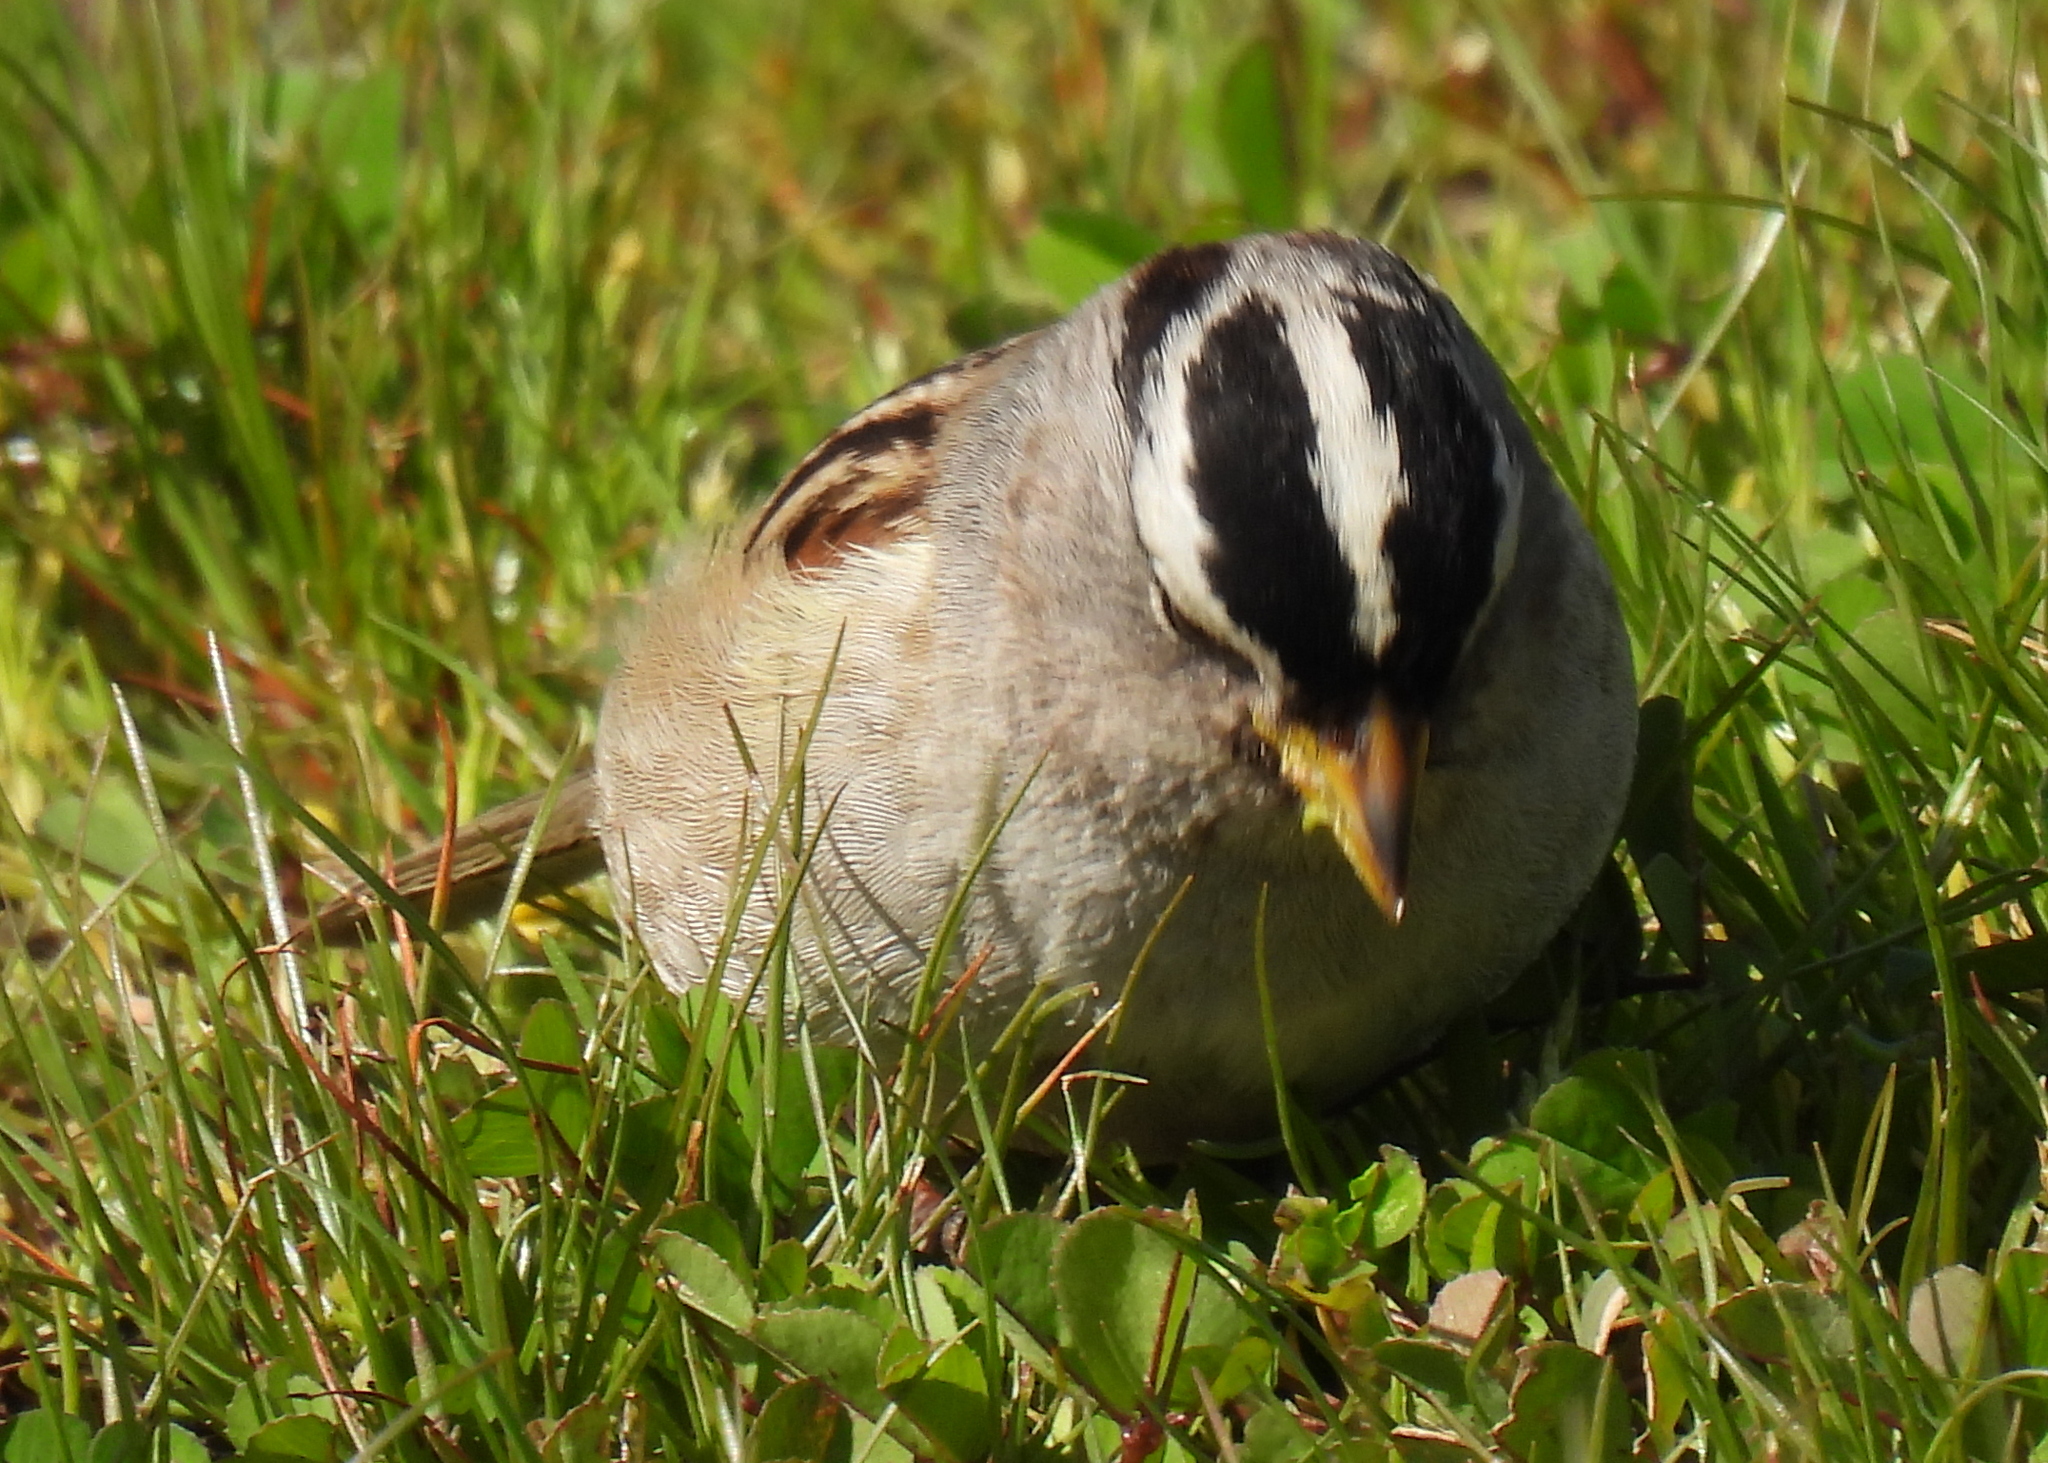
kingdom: Animalia
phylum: Chordata
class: Aves
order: Passeriformes
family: Passerellidae
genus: Zonotrichia
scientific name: Zonotrichia leucophrys
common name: White-crowned sparrow
